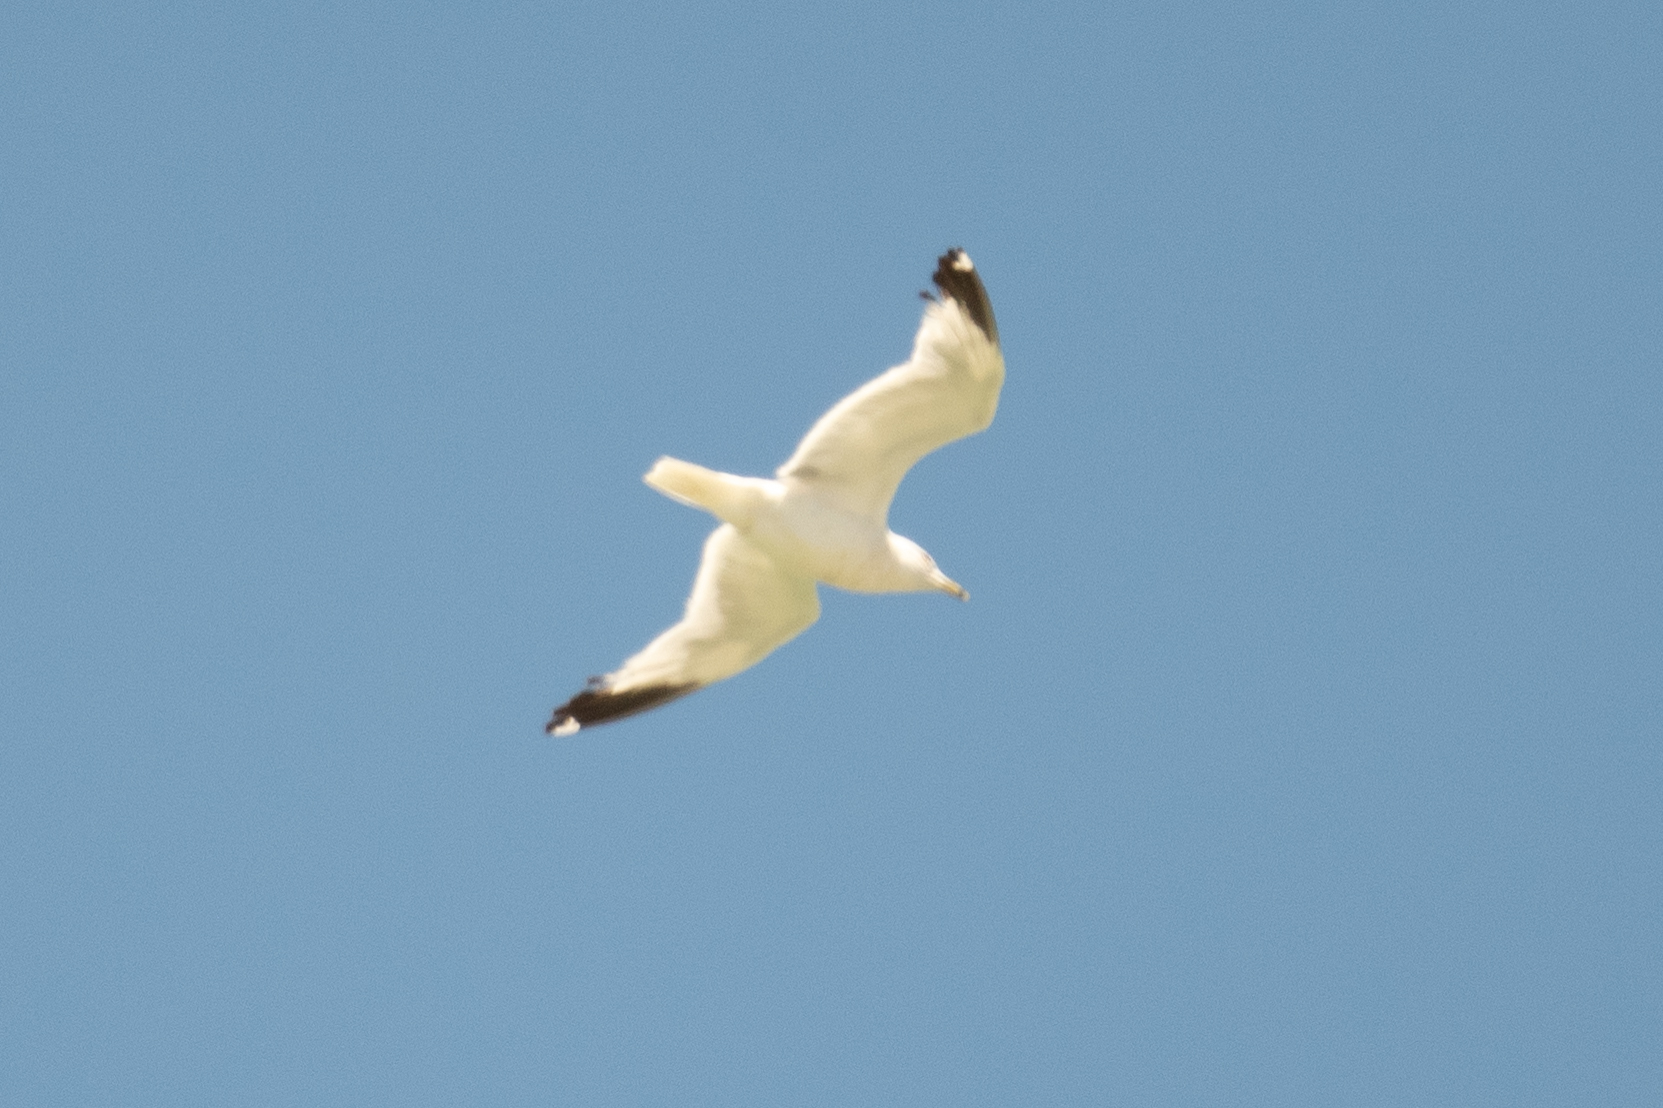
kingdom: Animalia
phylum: Chordata
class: Aves
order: Charadriiformes
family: Laridae
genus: Larus
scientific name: Larus delawarensis
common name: Ring-billed gull
